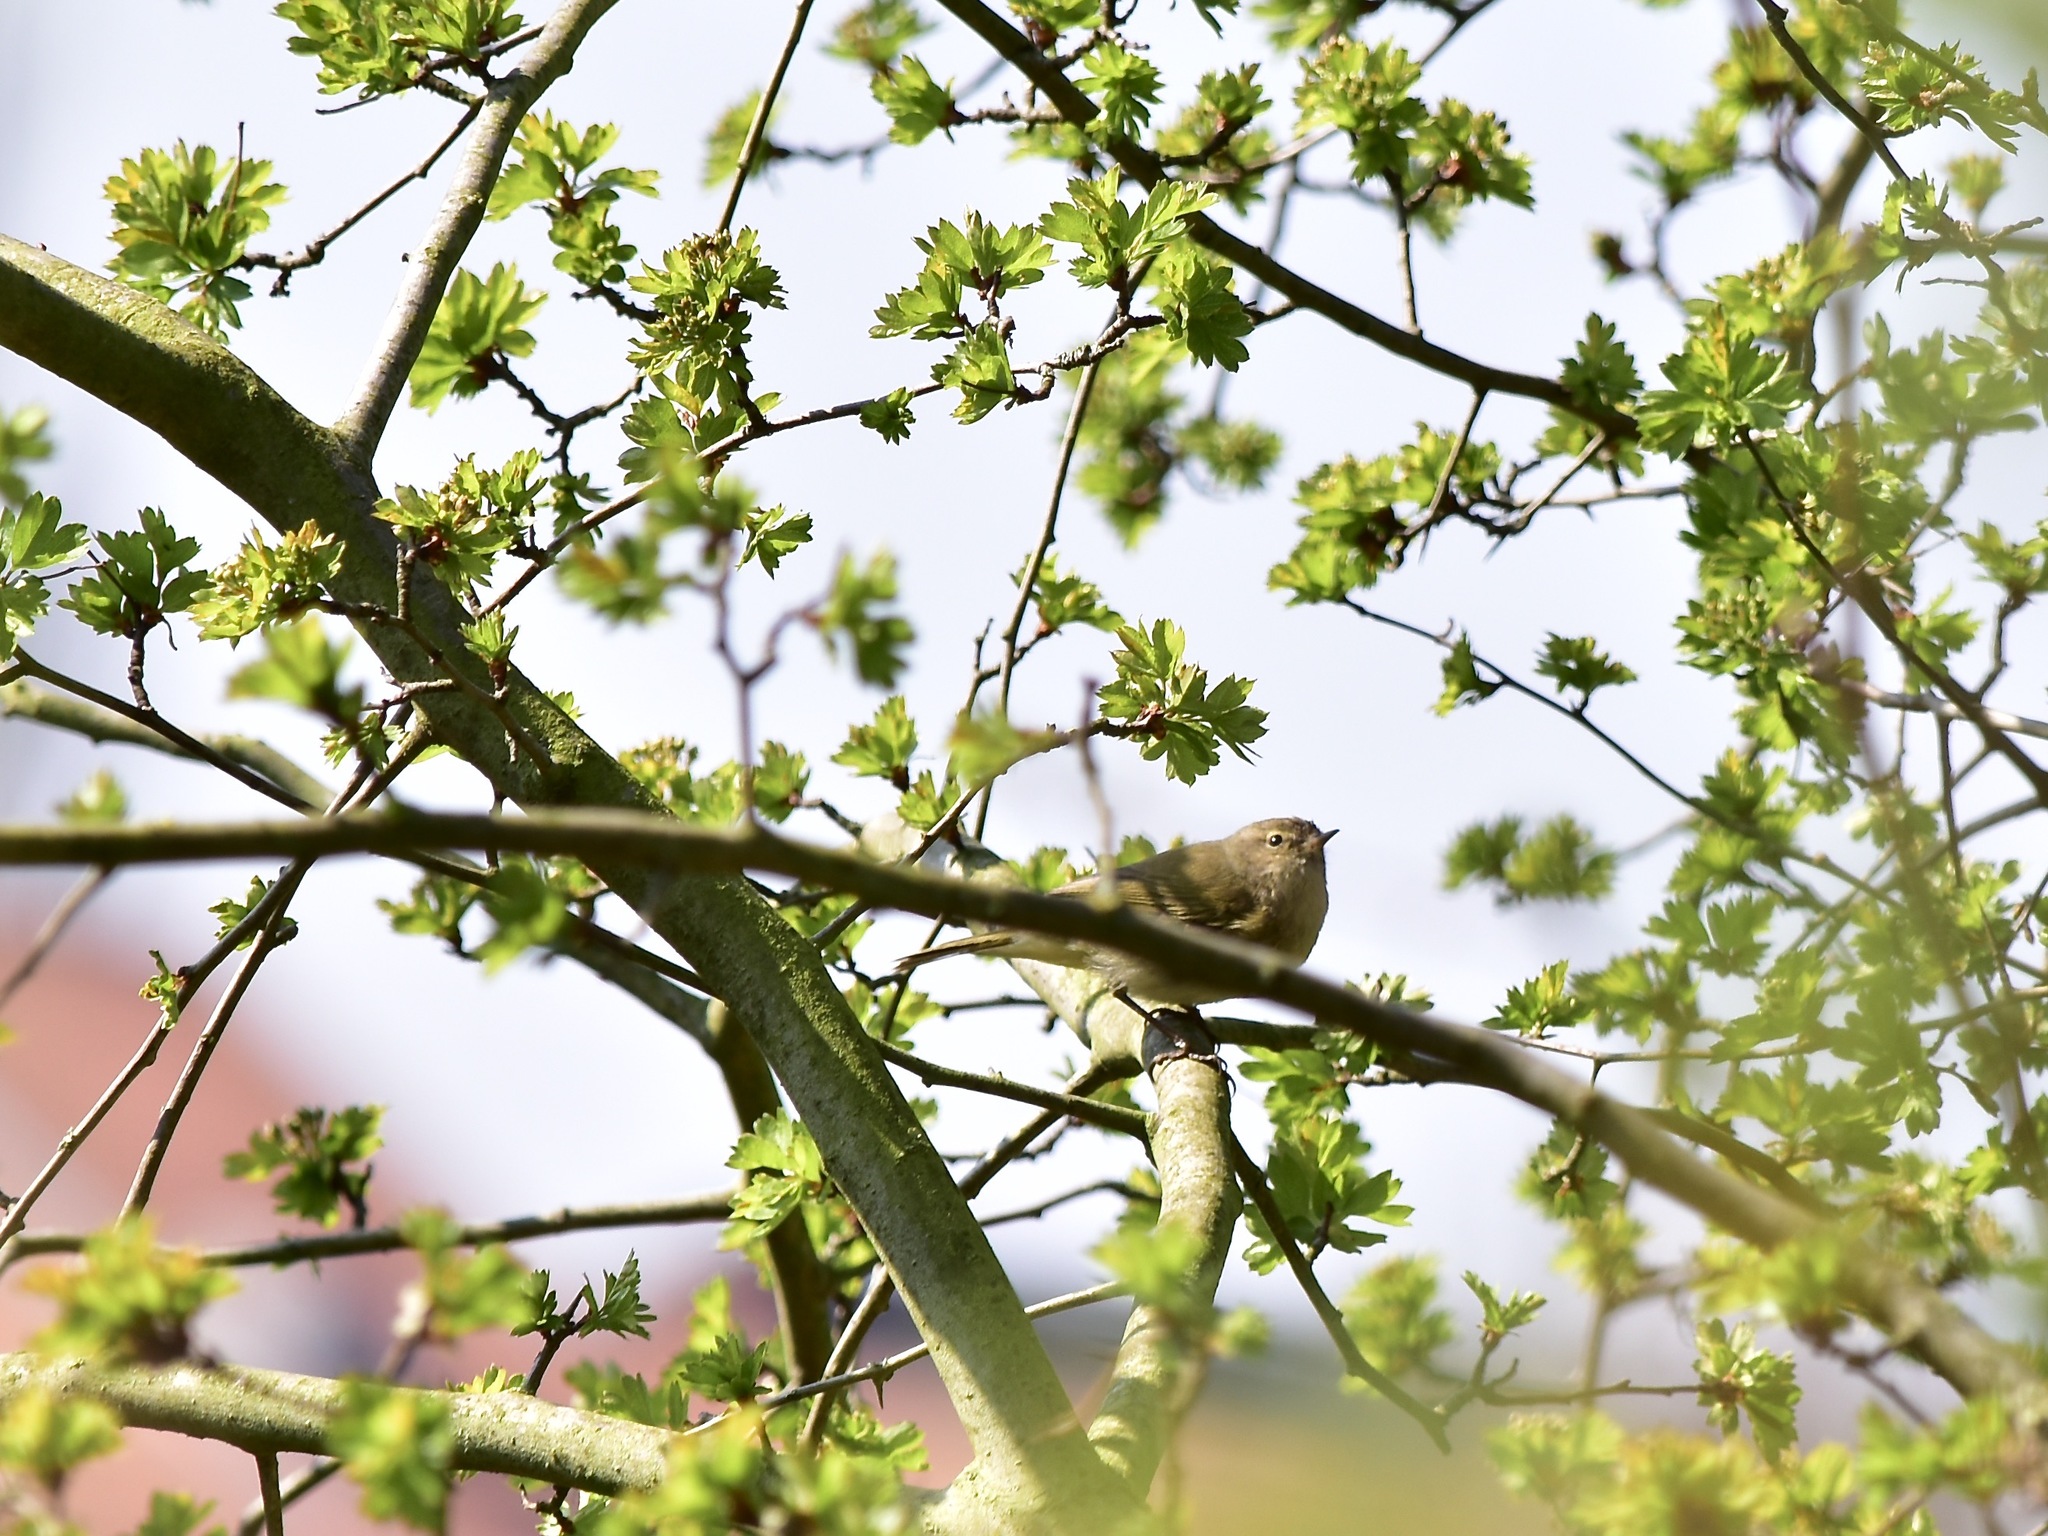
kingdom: Animalia
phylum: Chordata
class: Aves
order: Passeriformes
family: Phylloscopidae
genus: Phylloscopus
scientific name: Phylloscopus collybita
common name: Common chiffchaff
